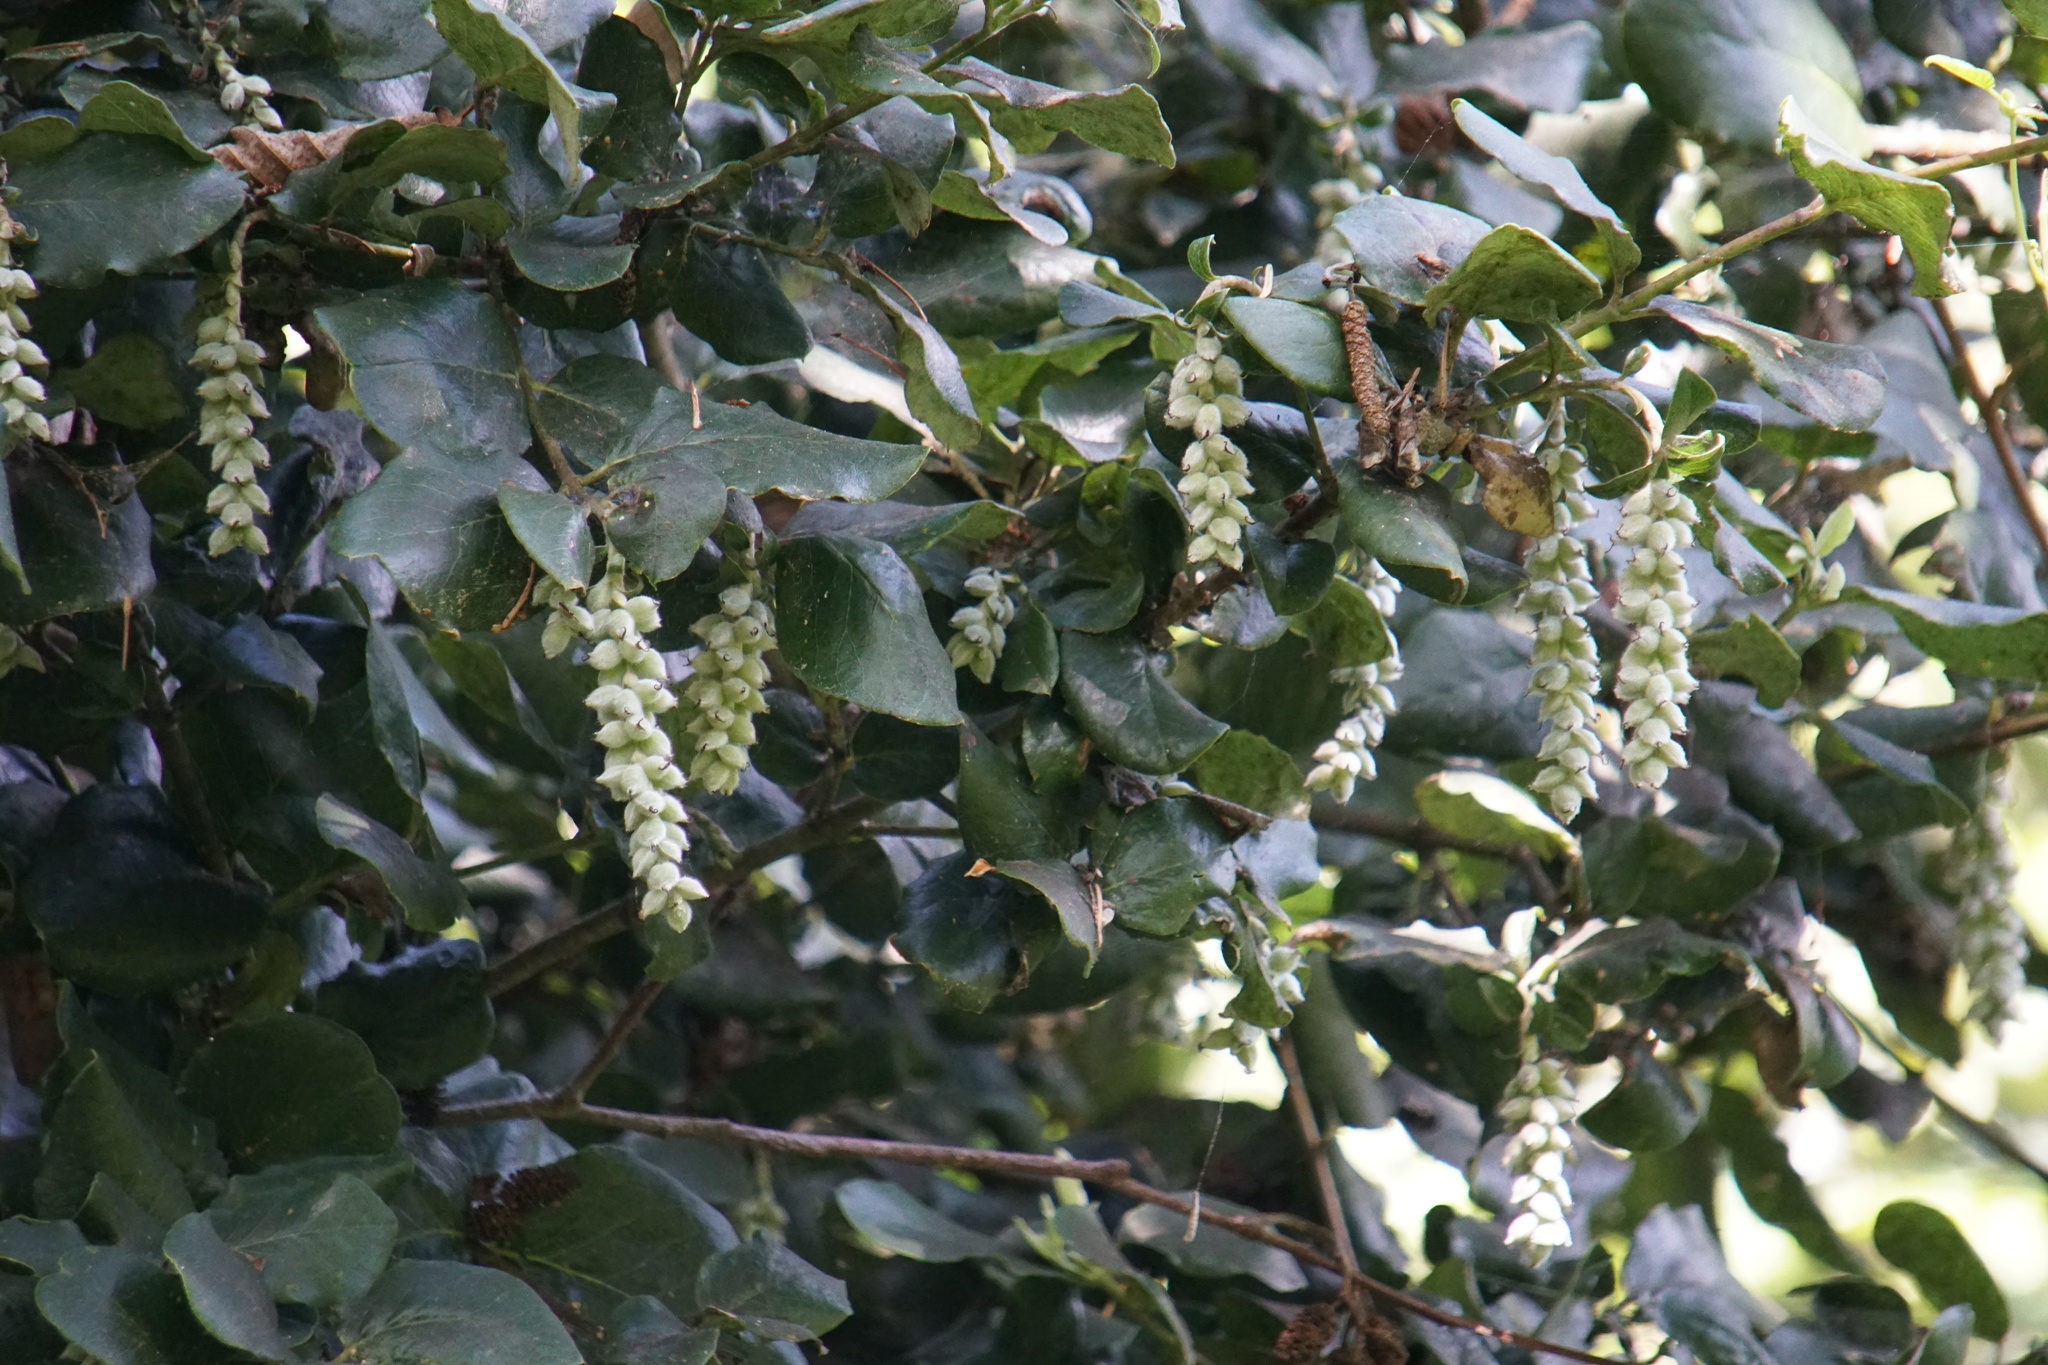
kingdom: Plantae
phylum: Tracheophyta
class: Magnoliopsida
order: Garryales
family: Garryaceae
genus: Garrya
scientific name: Garrya elliptica
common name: Silk-tassel
